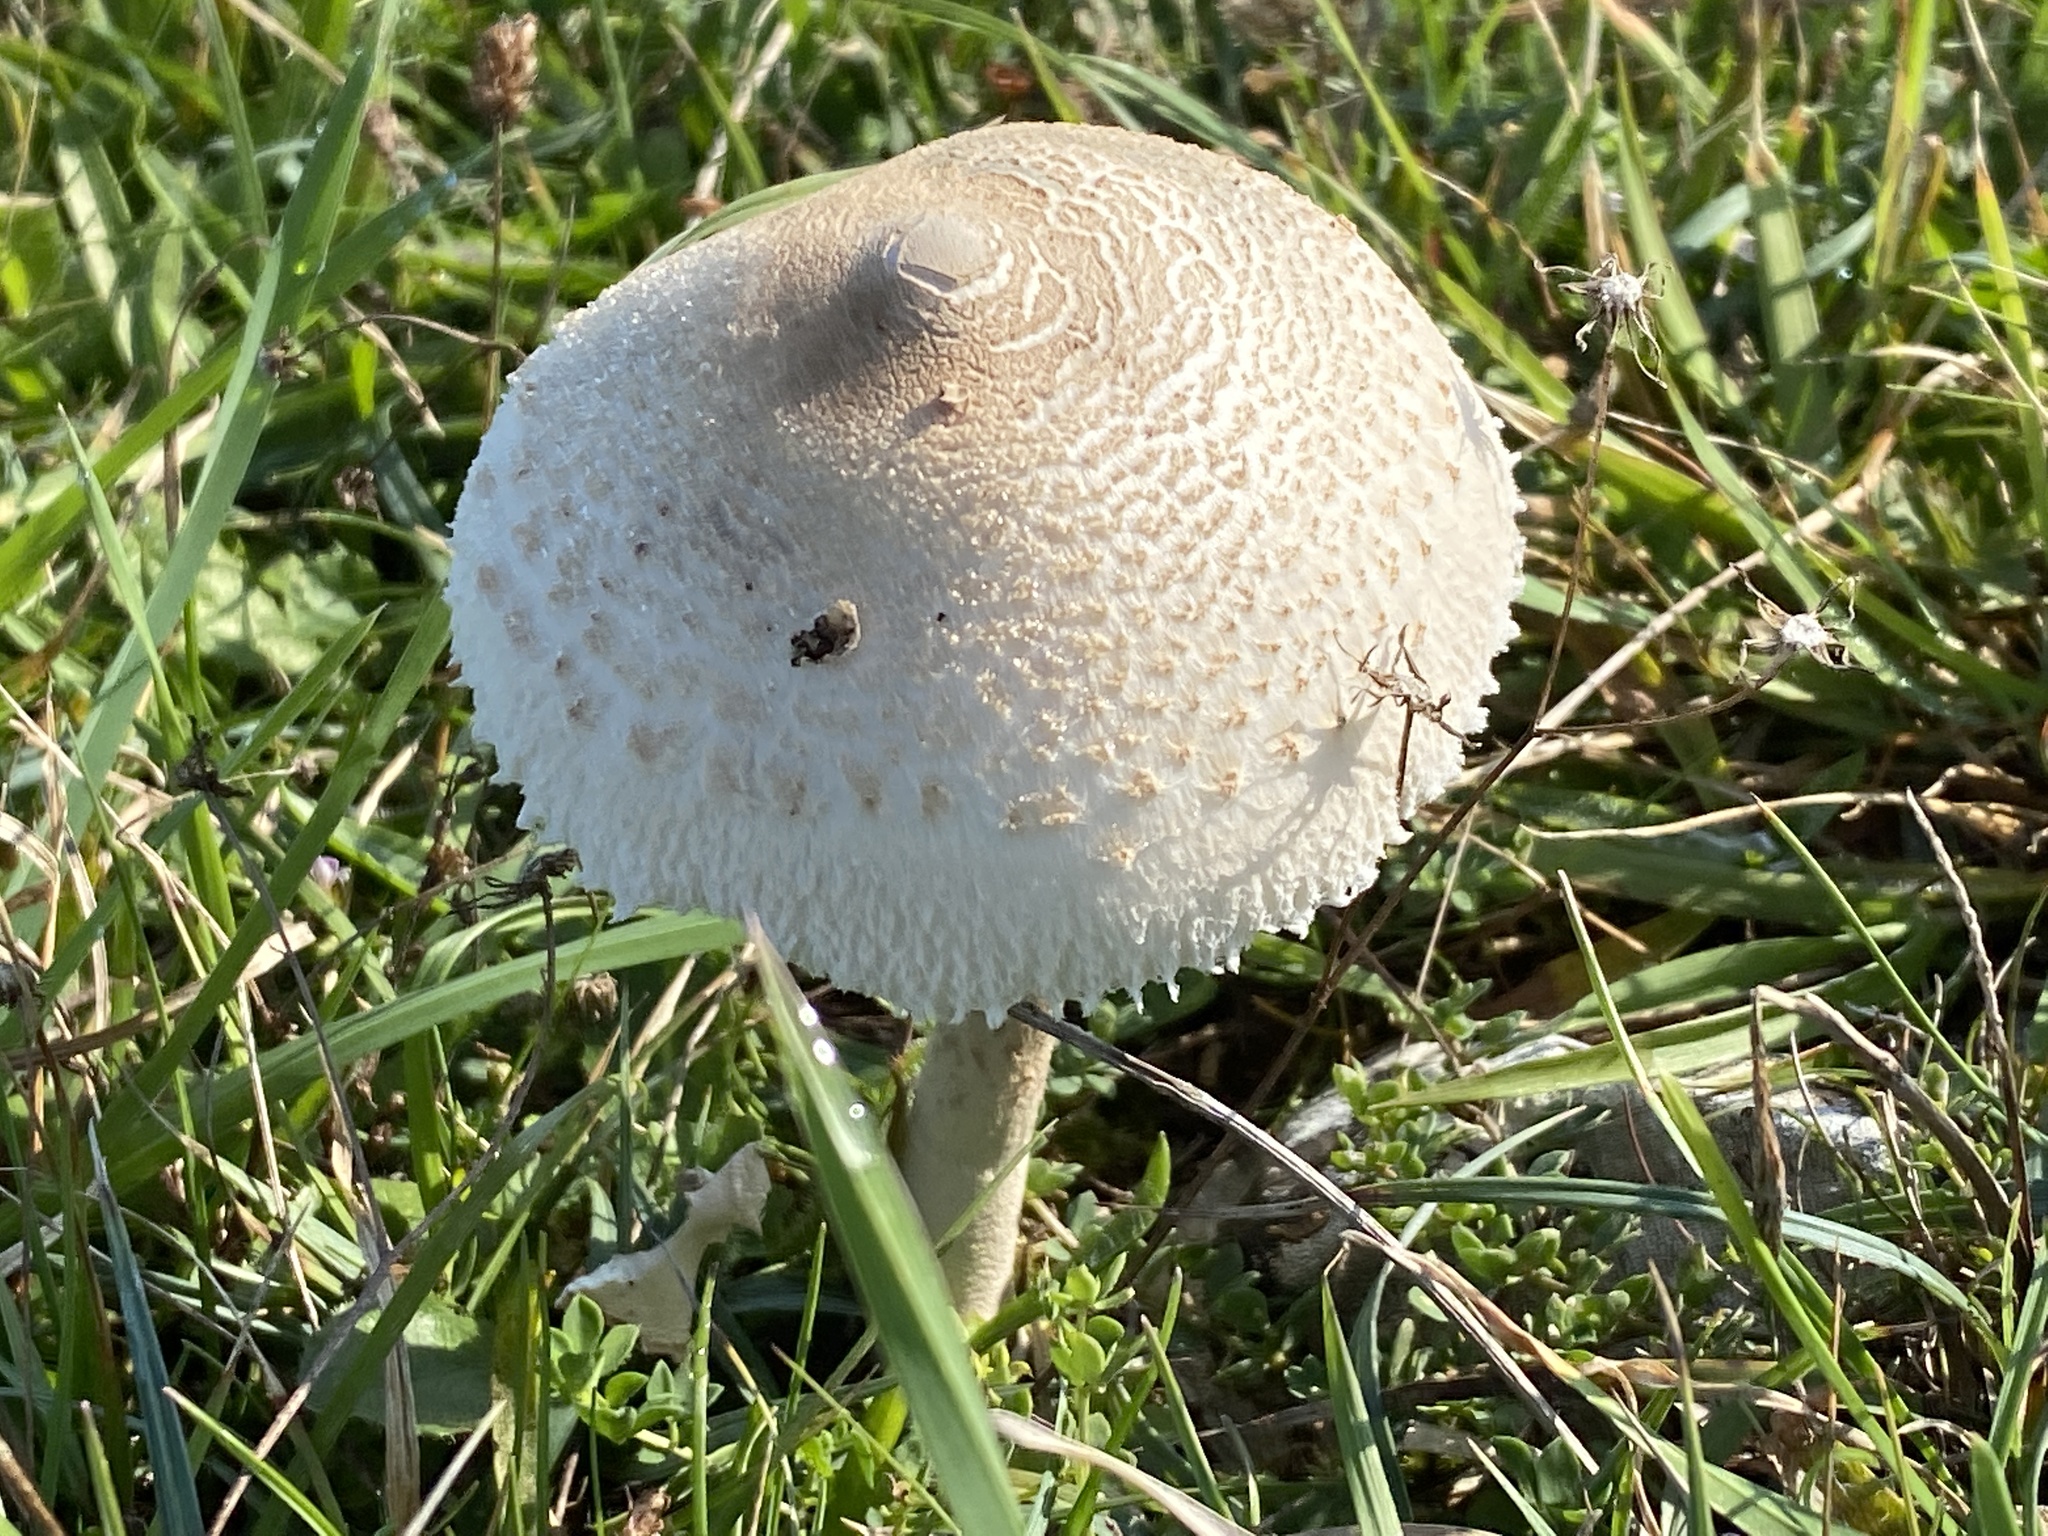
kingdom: Fungi
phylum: Basidiomycota
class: Agaricomycetes
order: Agaricales
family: Agaricaceae
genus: Macrolepiota
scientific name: Macrolepiota mastoidea
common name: Slender parasol
